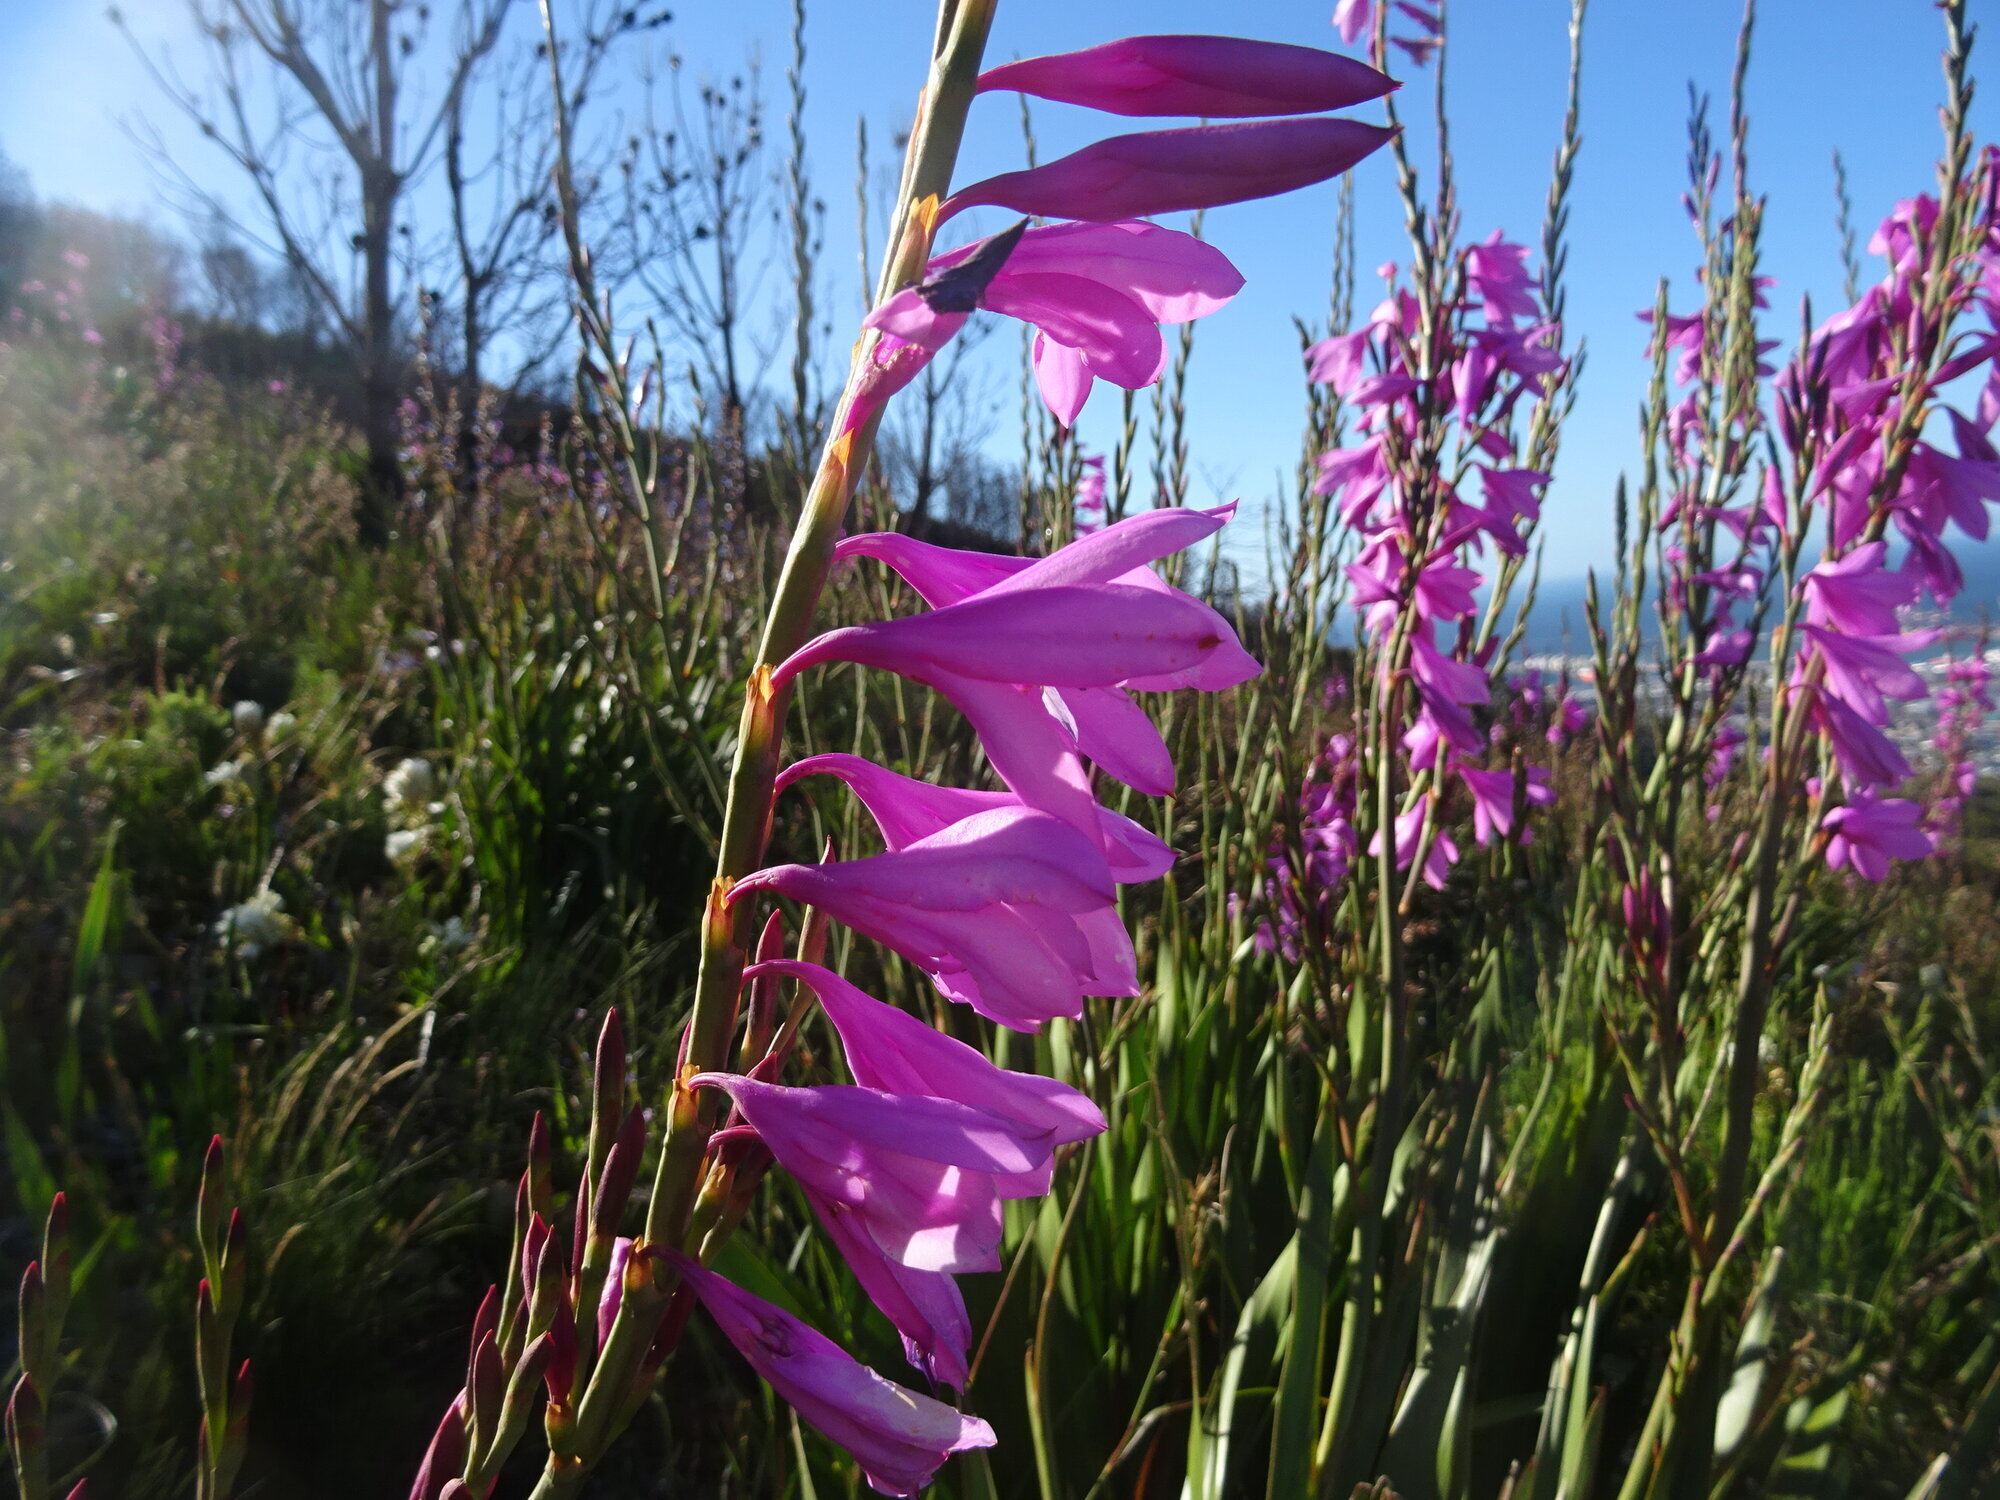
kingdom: Plantae
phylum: Tracheophyta
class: Liliopsida
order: Asparagales
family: Iridaceae
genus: Watsonia
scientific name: Watsonia borbonica
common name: Bugle-lily
